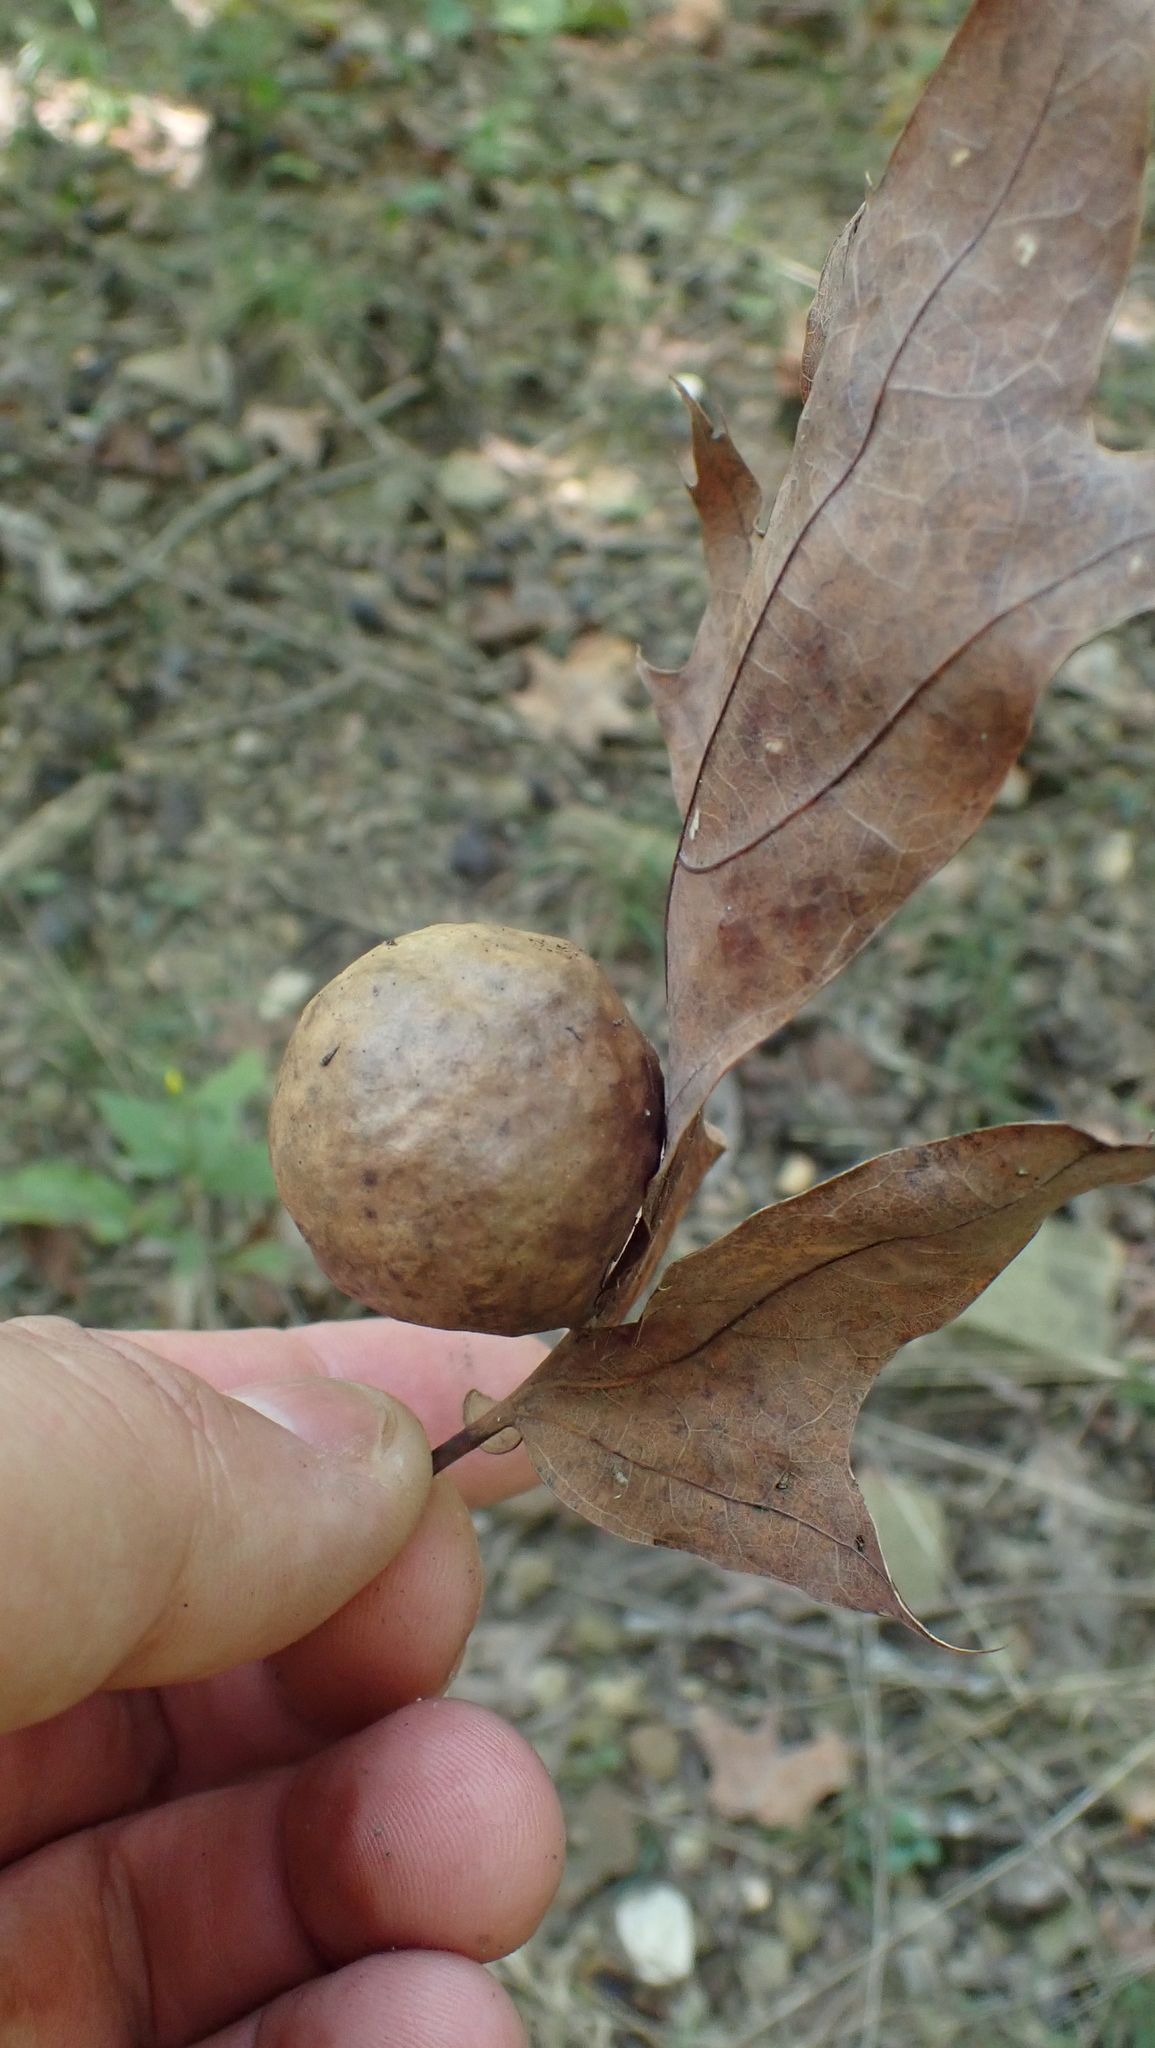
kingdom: Animalia
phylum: Arthropoda
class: Insecta
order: Hymenoptera
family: Cynipidae
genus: Amphibolips
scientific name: Amphibolips
